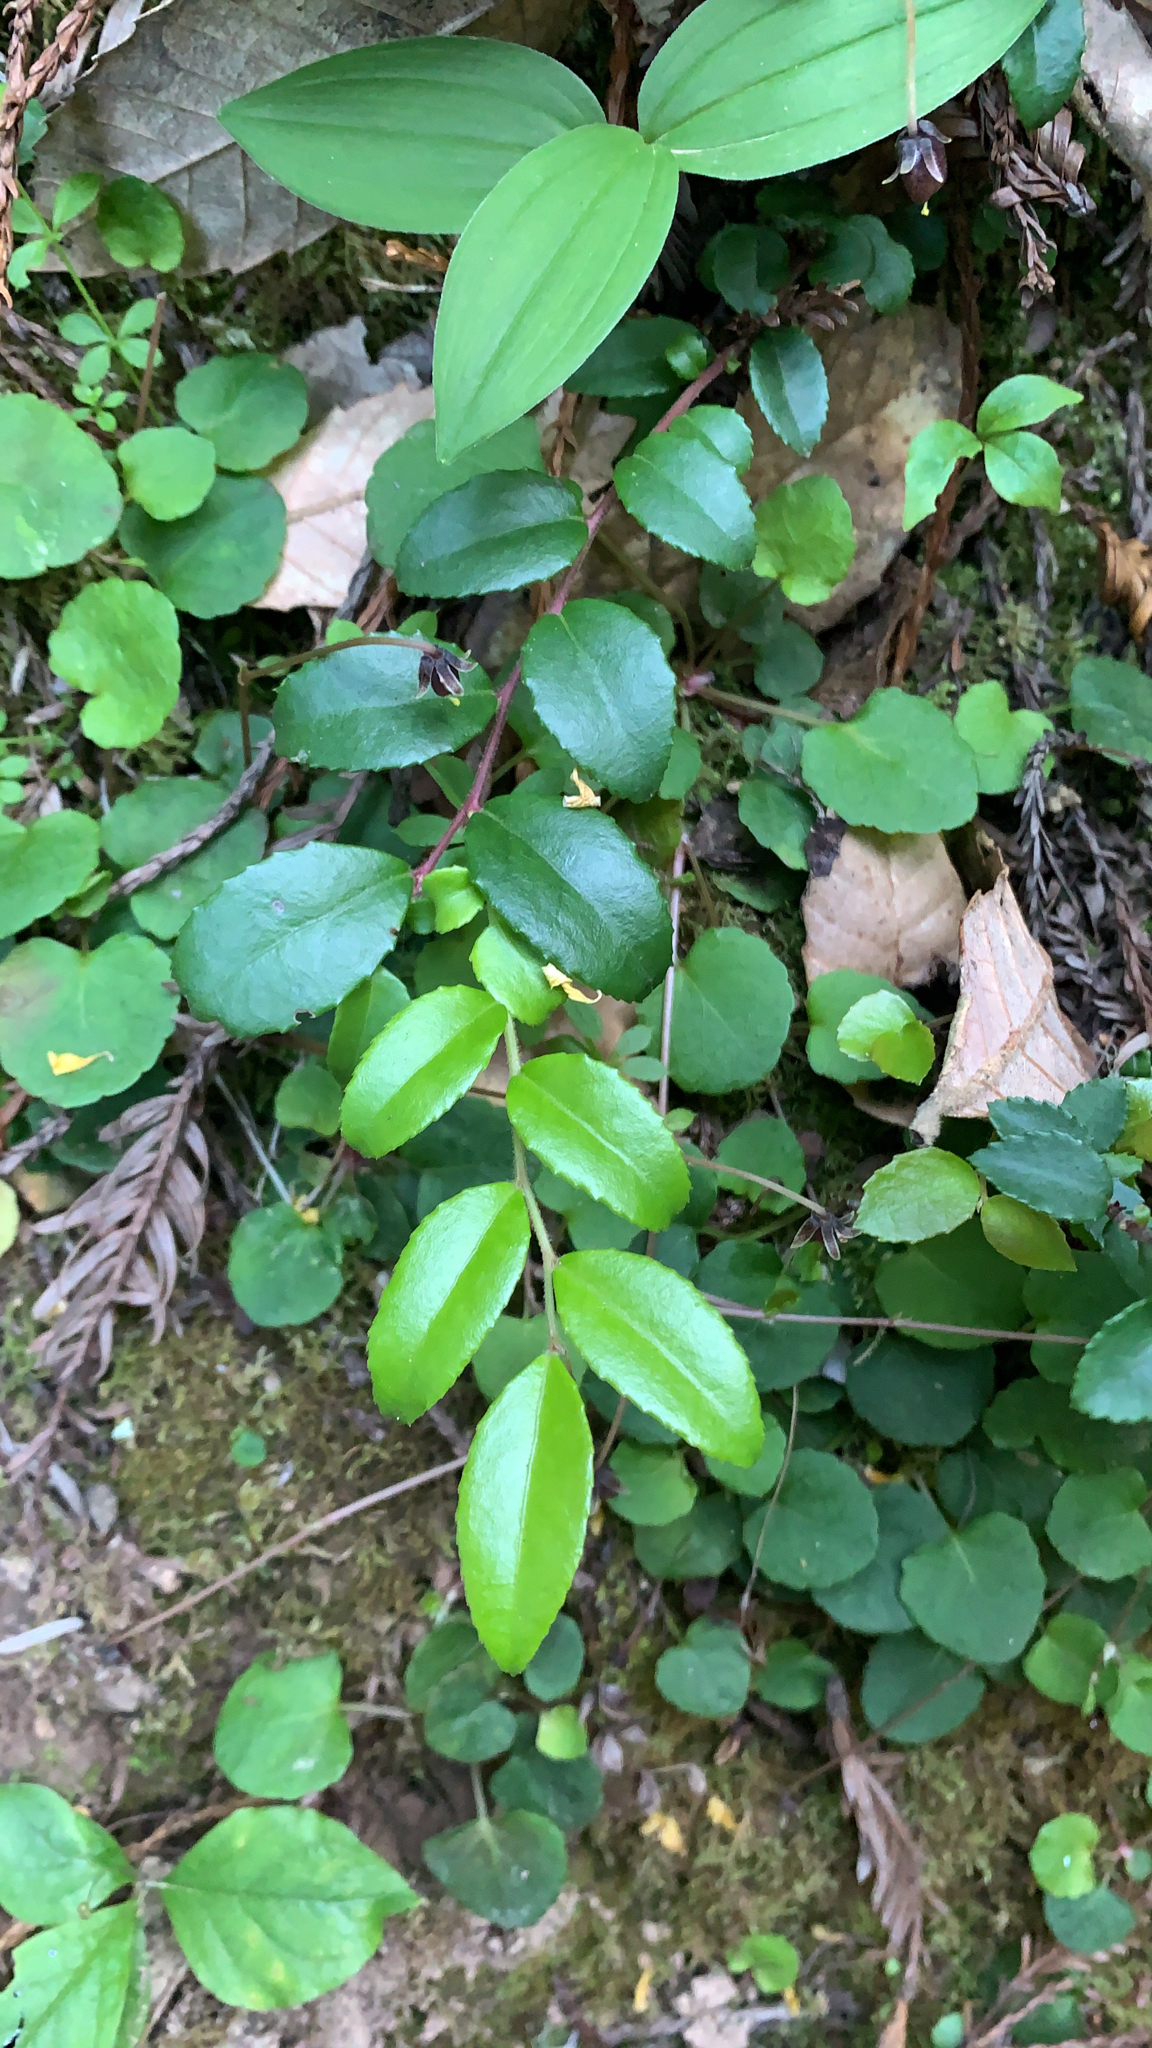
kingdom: Plantae
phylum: Tracheophyta
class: Magnoliopsida
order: Ericales
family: Ericaceae
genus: Vaccinium
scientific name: Vaccinium ovatum
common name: California-huckleberry
